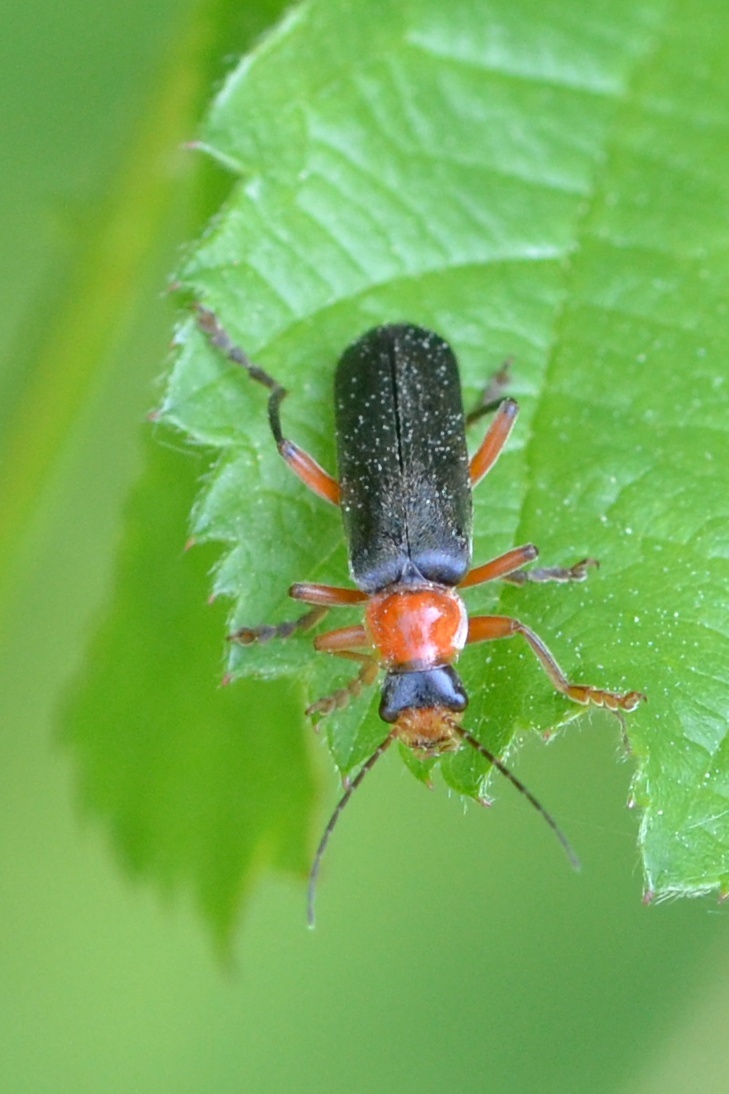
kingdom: Animalia
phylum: Arthropoda
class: Insecta
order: Coleoptera
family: Cantharidae
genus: Cantharis
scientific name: Cantharis pellucida
